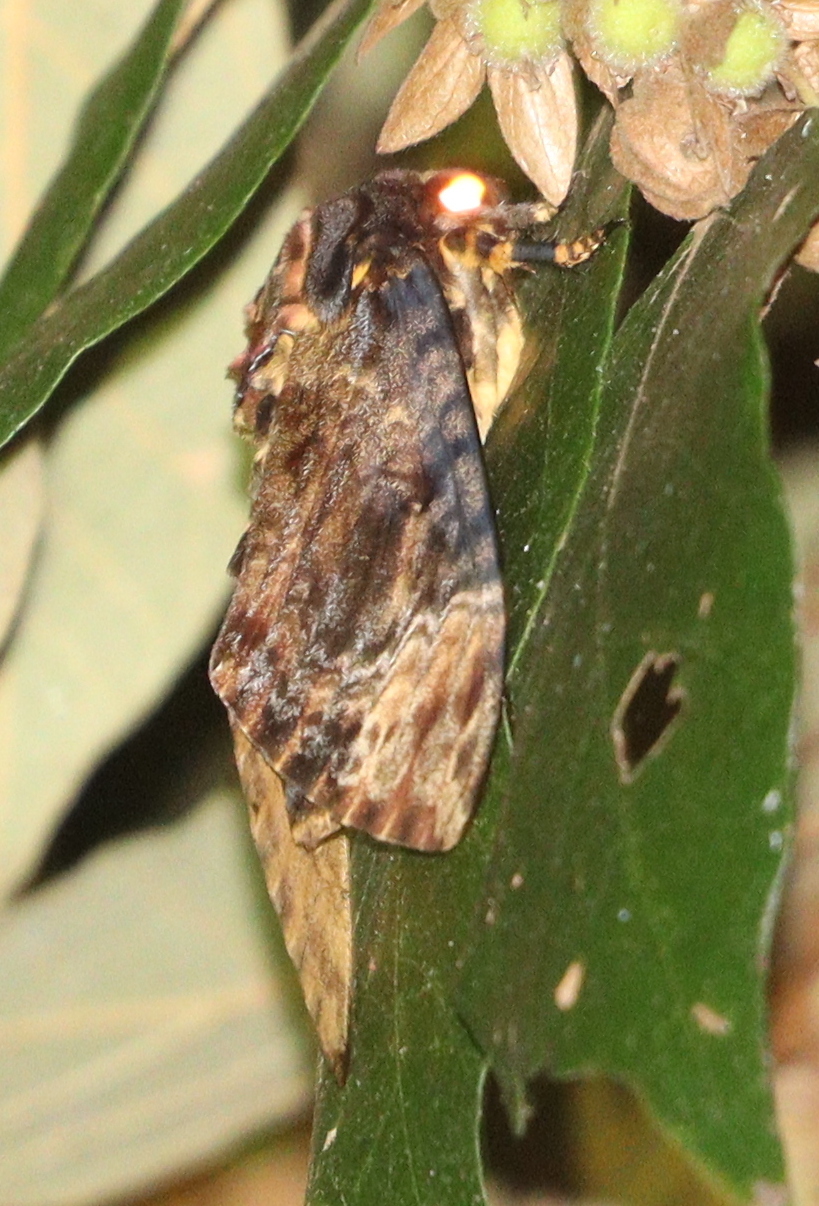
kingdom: Animalia
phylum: Arthropoda
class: Insecta
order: Lepidoptera
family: Sphingidae
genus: Acherontia
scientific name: Acherontia lachesis
